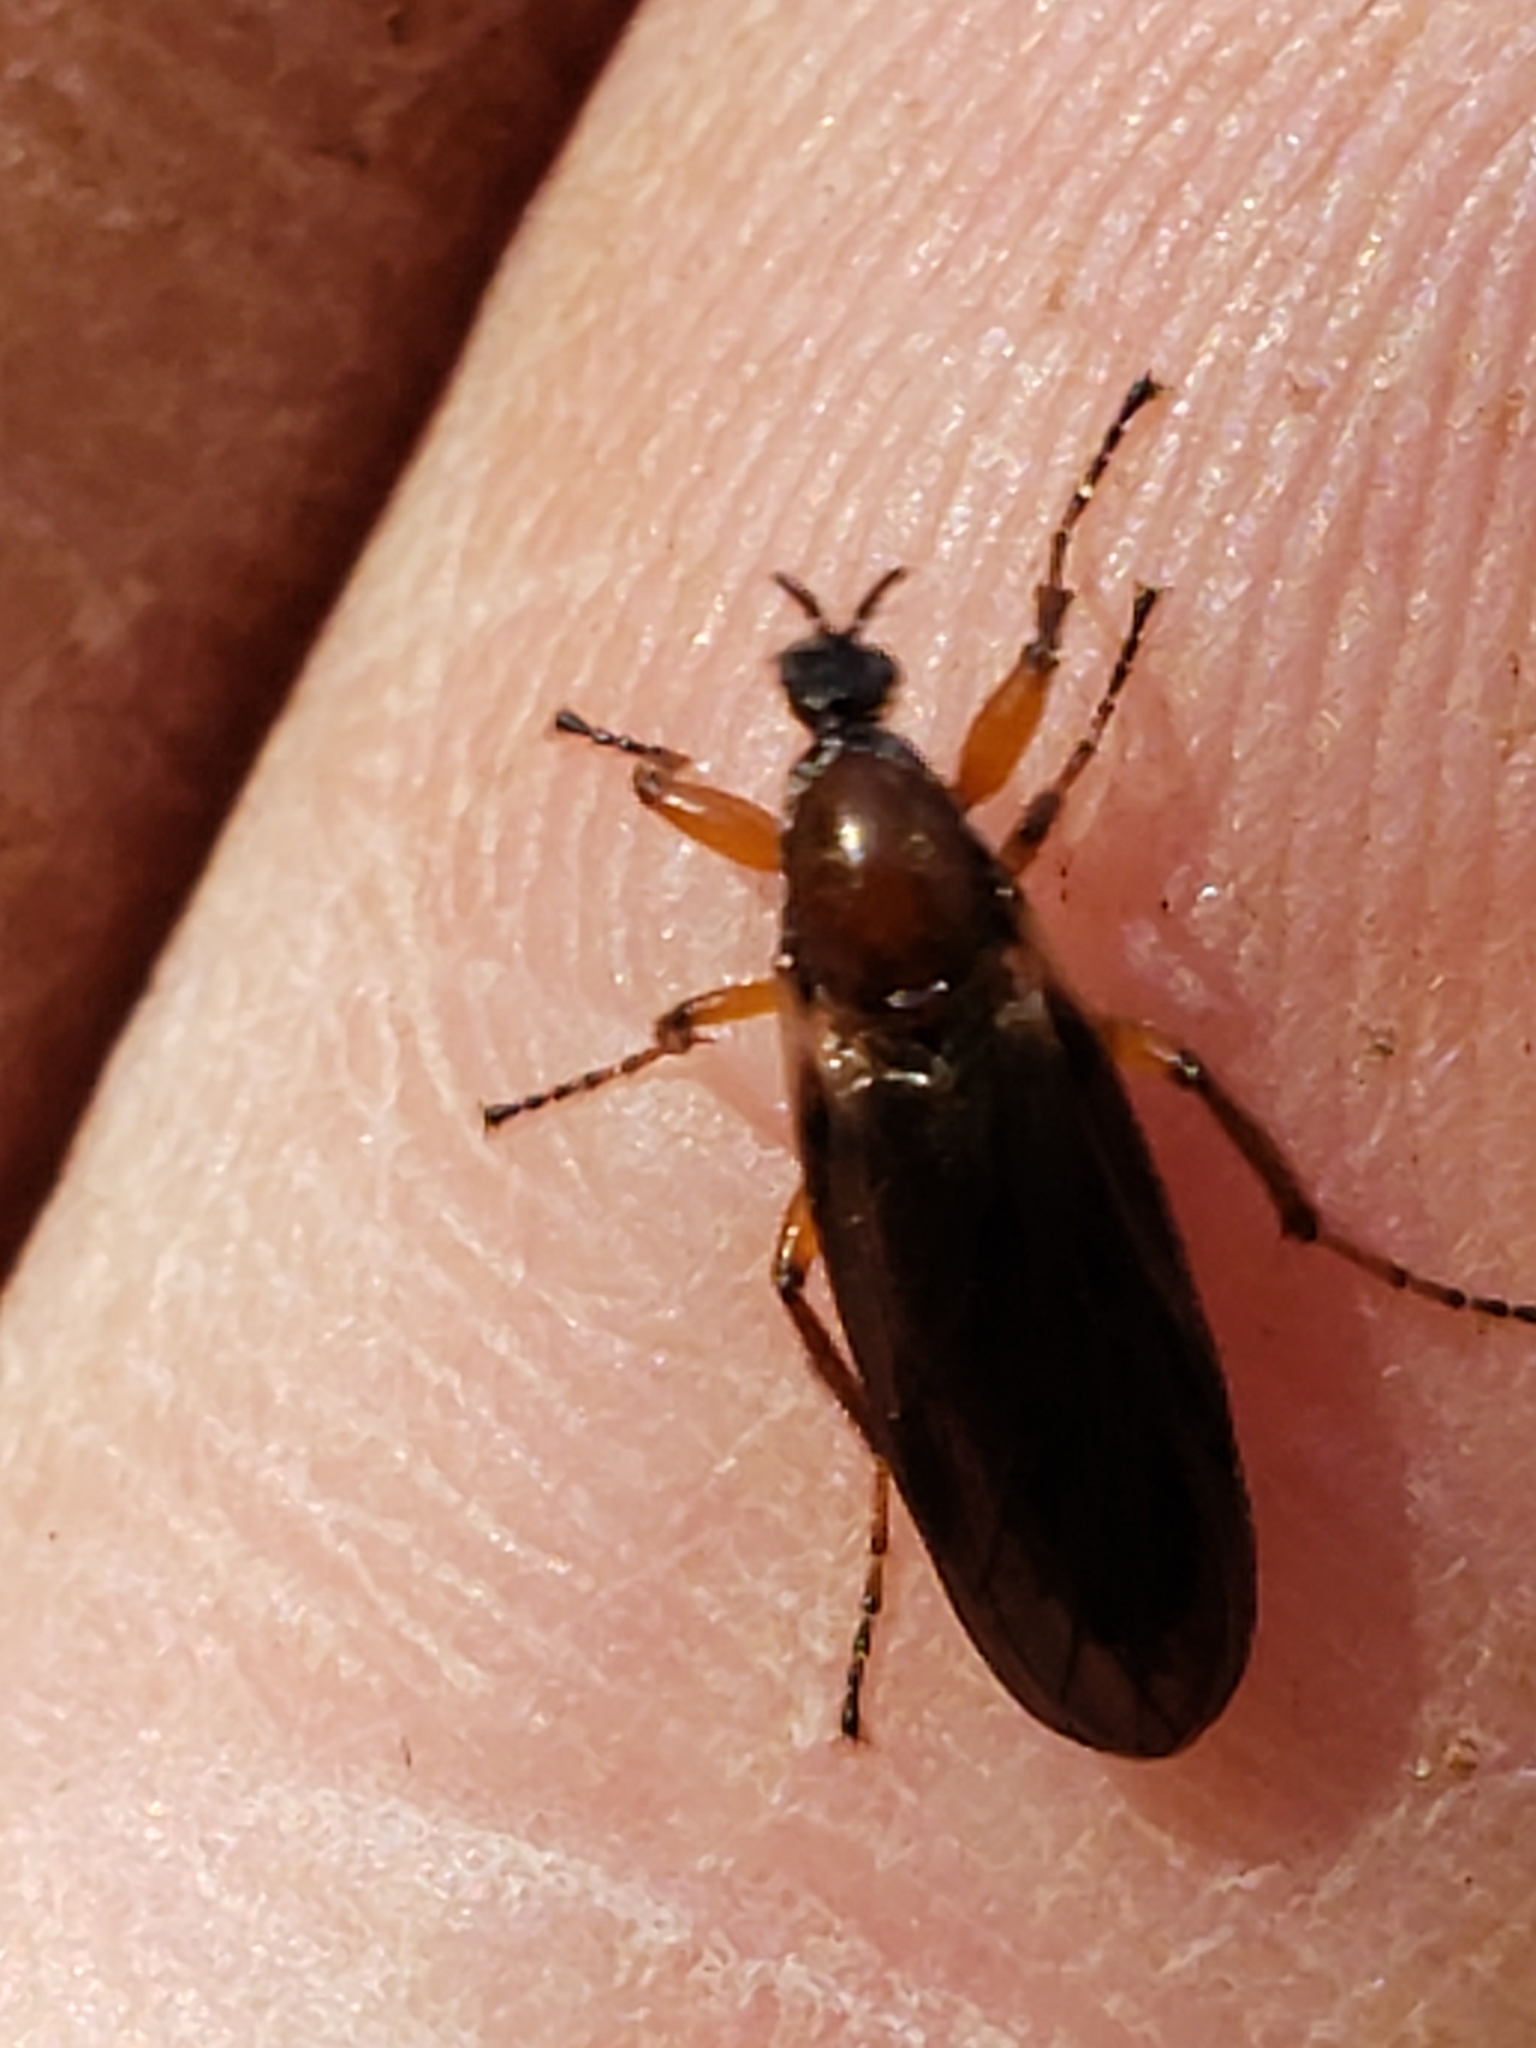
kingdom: Animalia
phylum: Arthropoda
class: Insecta
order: Diptera
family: Bibionidae
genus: Bibio
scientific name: Bibio articulatus
